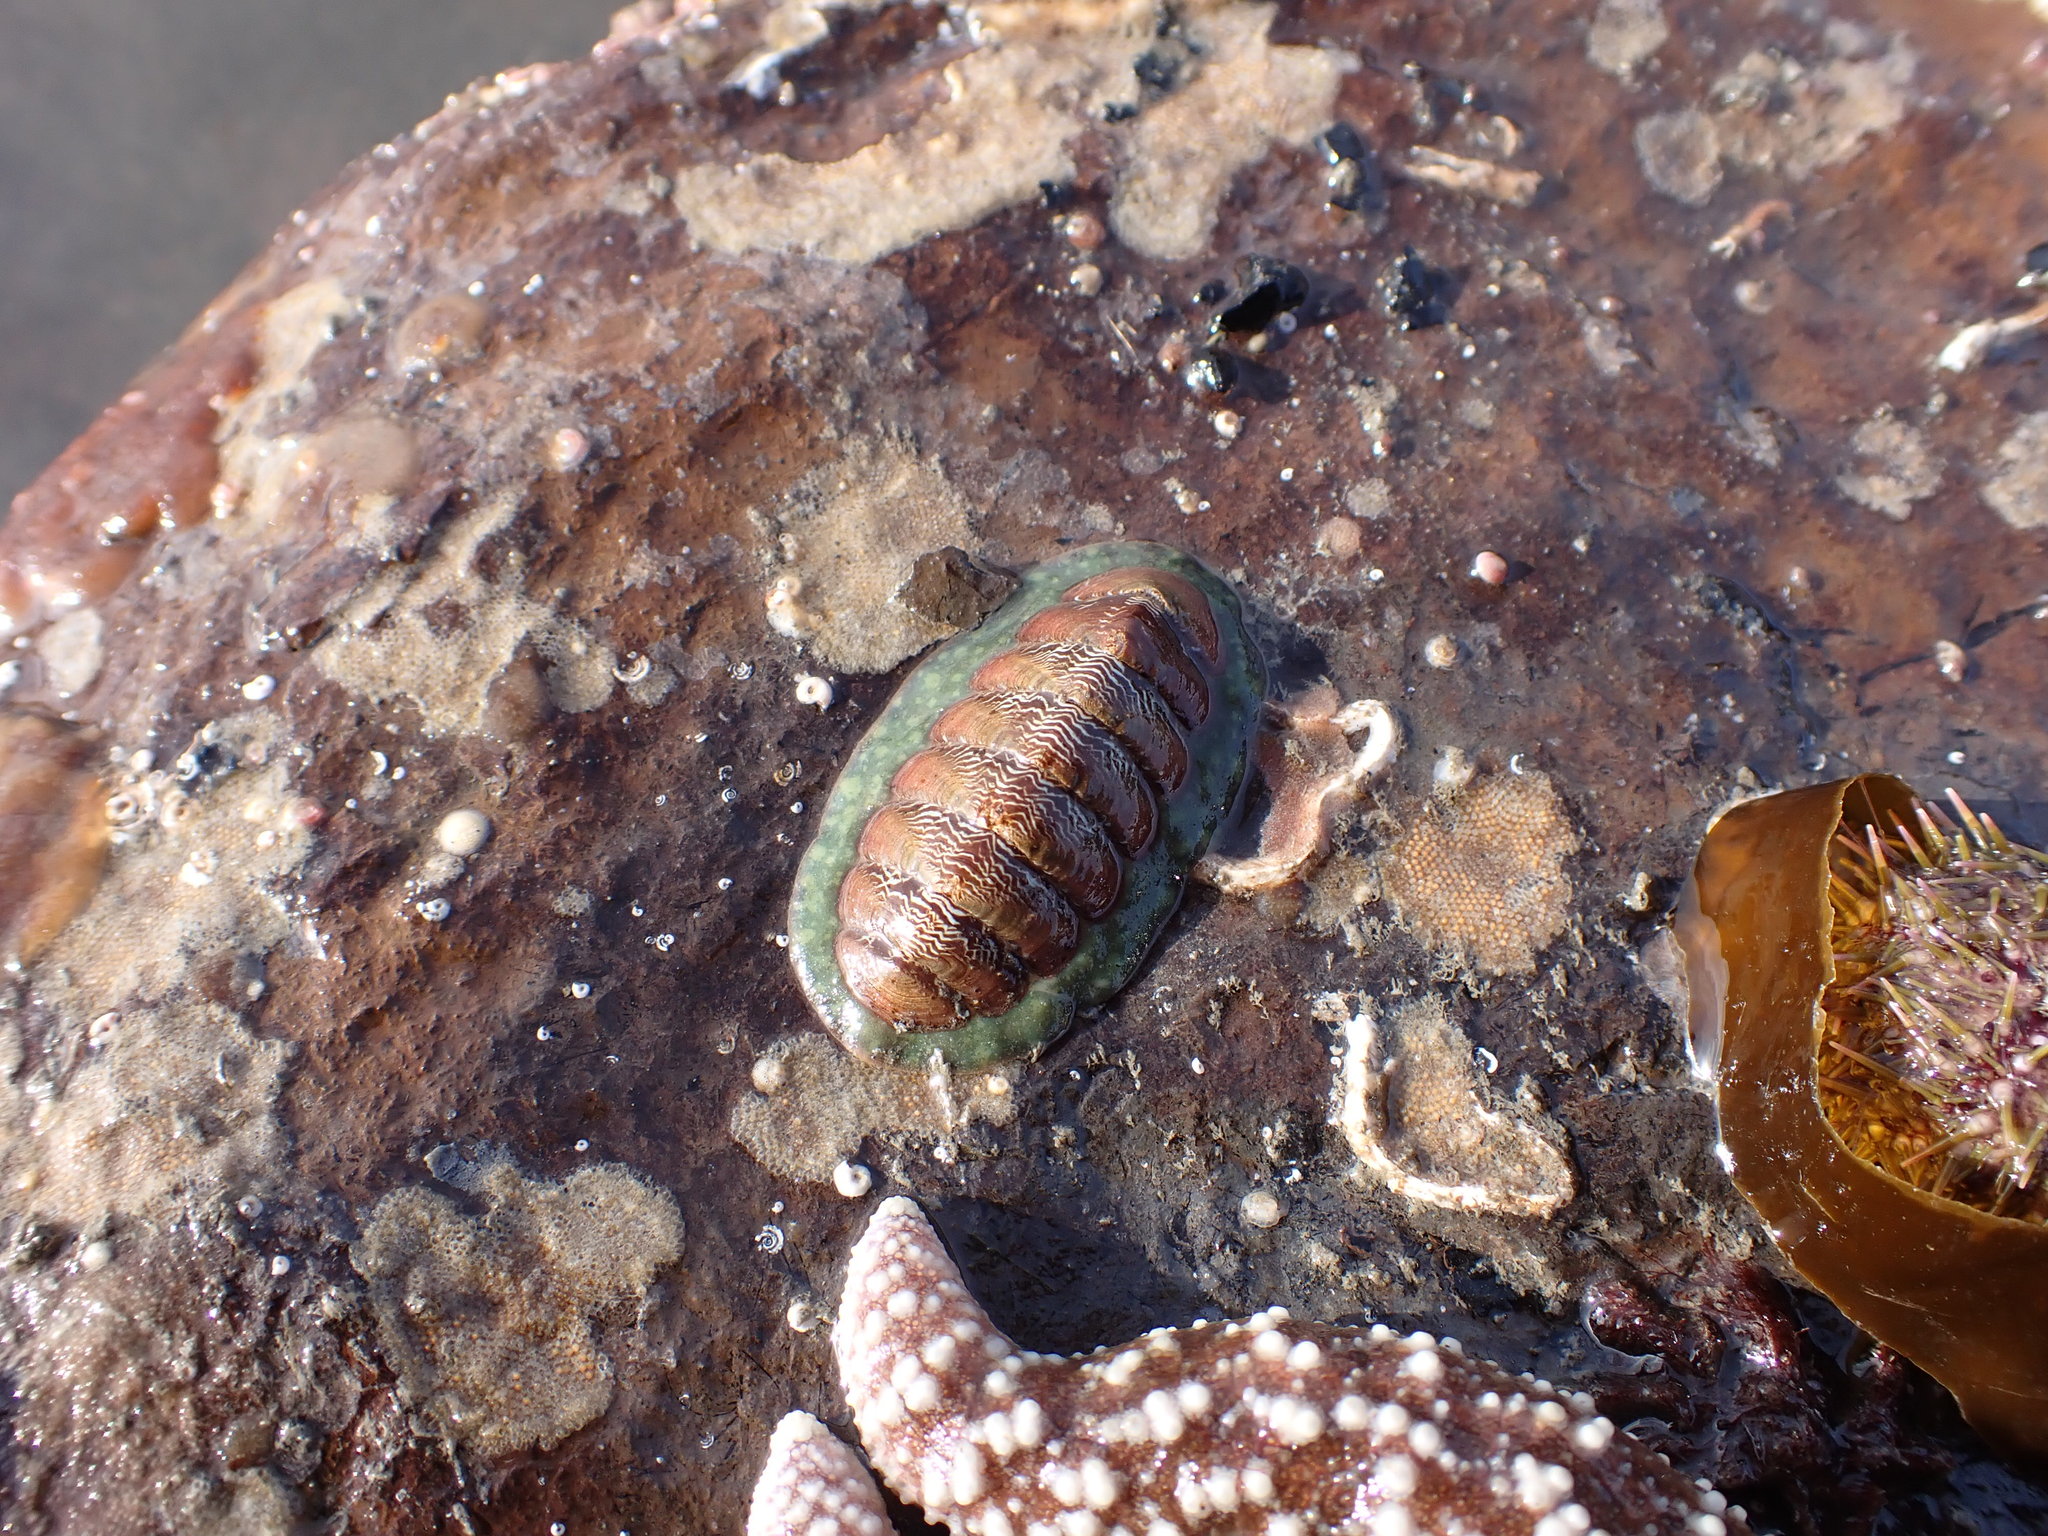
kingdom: Animalia
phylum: Mollusca
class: Polyplacophora
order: Chitonida
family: Tonicellidae
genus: Tonicella
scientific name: Tonicella insignis
